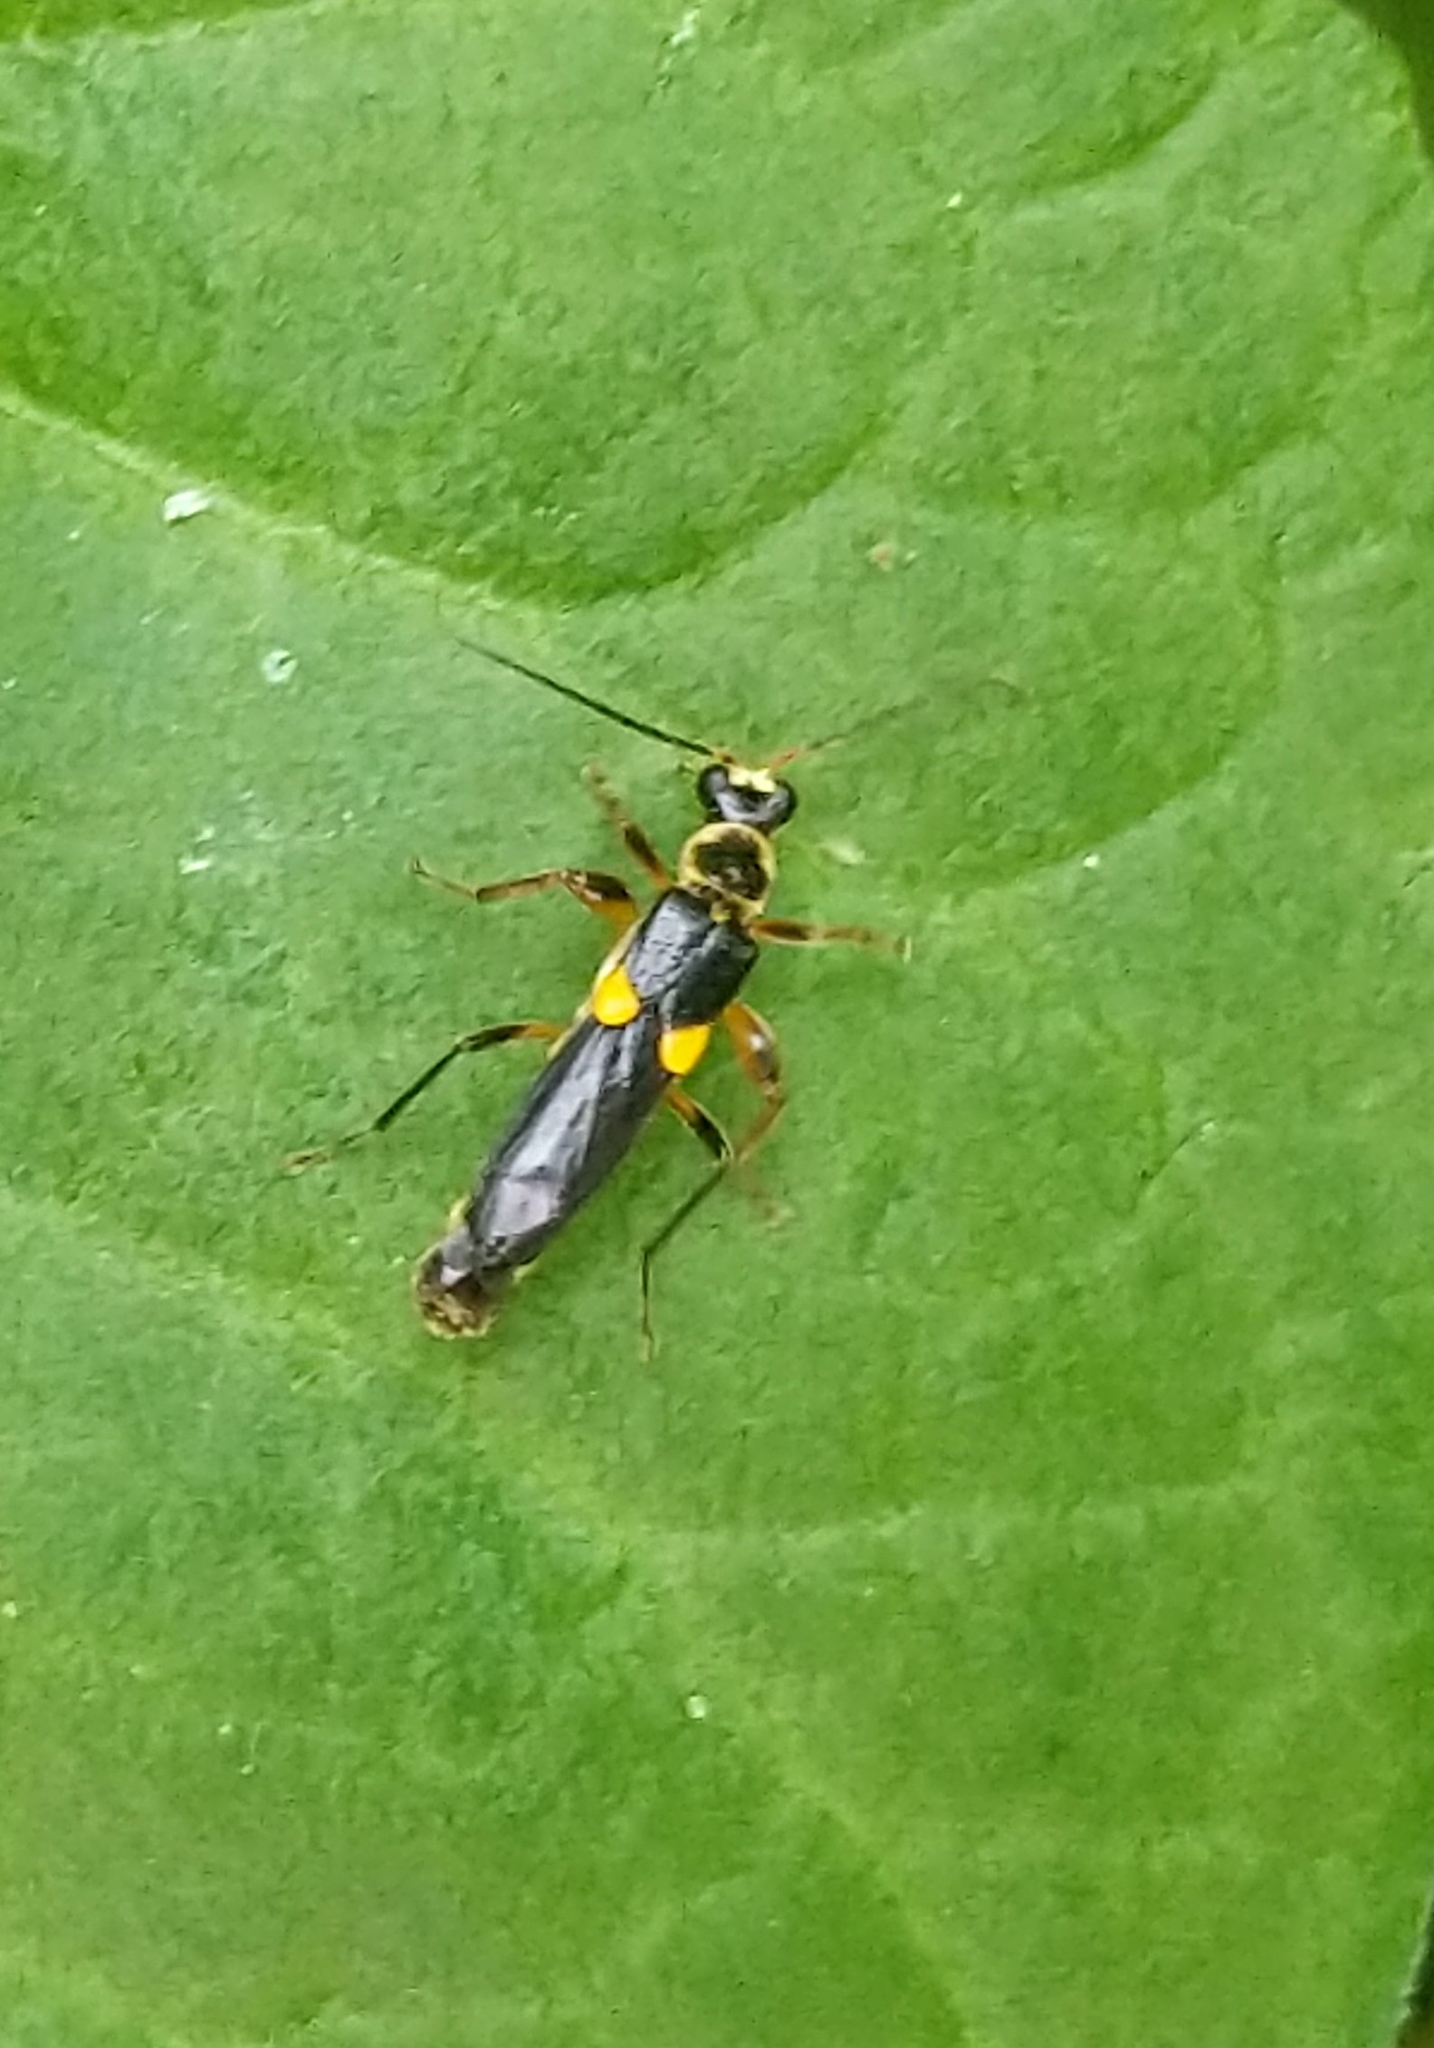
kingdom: Animalia
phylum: Arthropoda
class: Insecta
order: Coleoptera
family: Cantharidae
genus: Trypherus
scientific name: Trypherus
